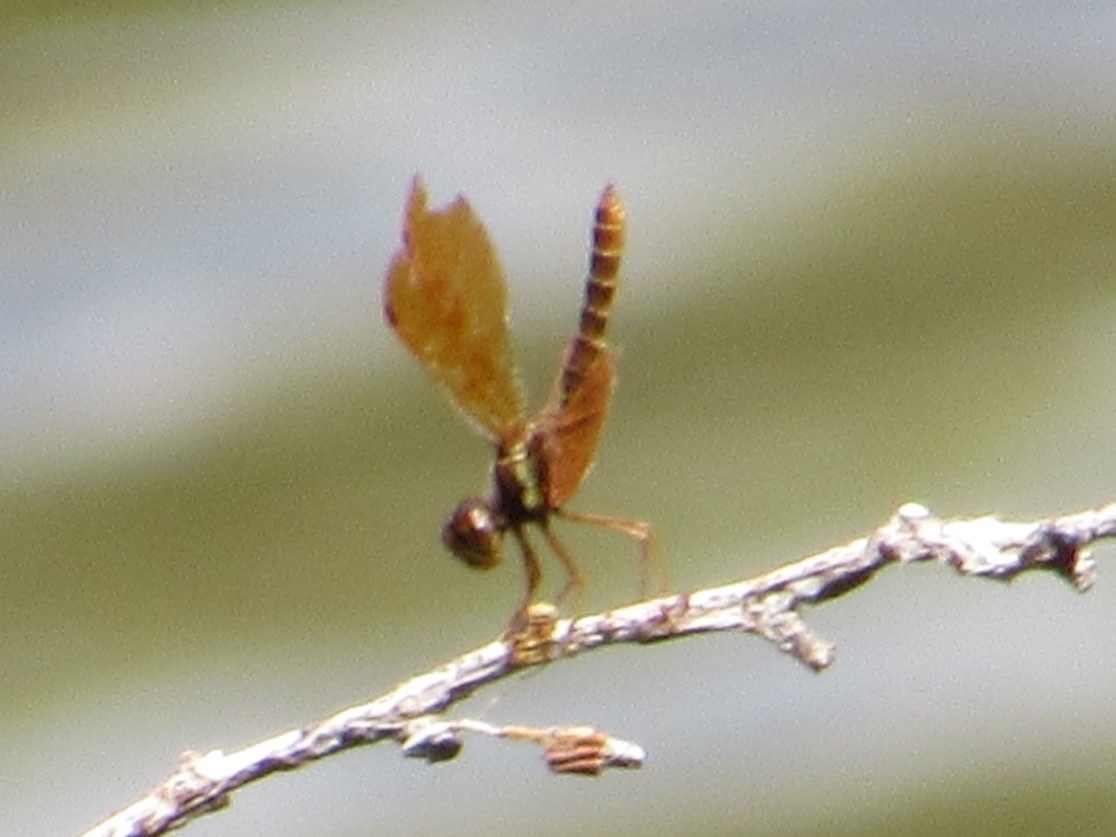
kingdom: Animalia
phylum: Arthropoda
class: Insecta
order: Odonata
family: Libellulidae
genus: Perithemis
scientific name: Perithemis tenera
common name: Eastern amberwing
